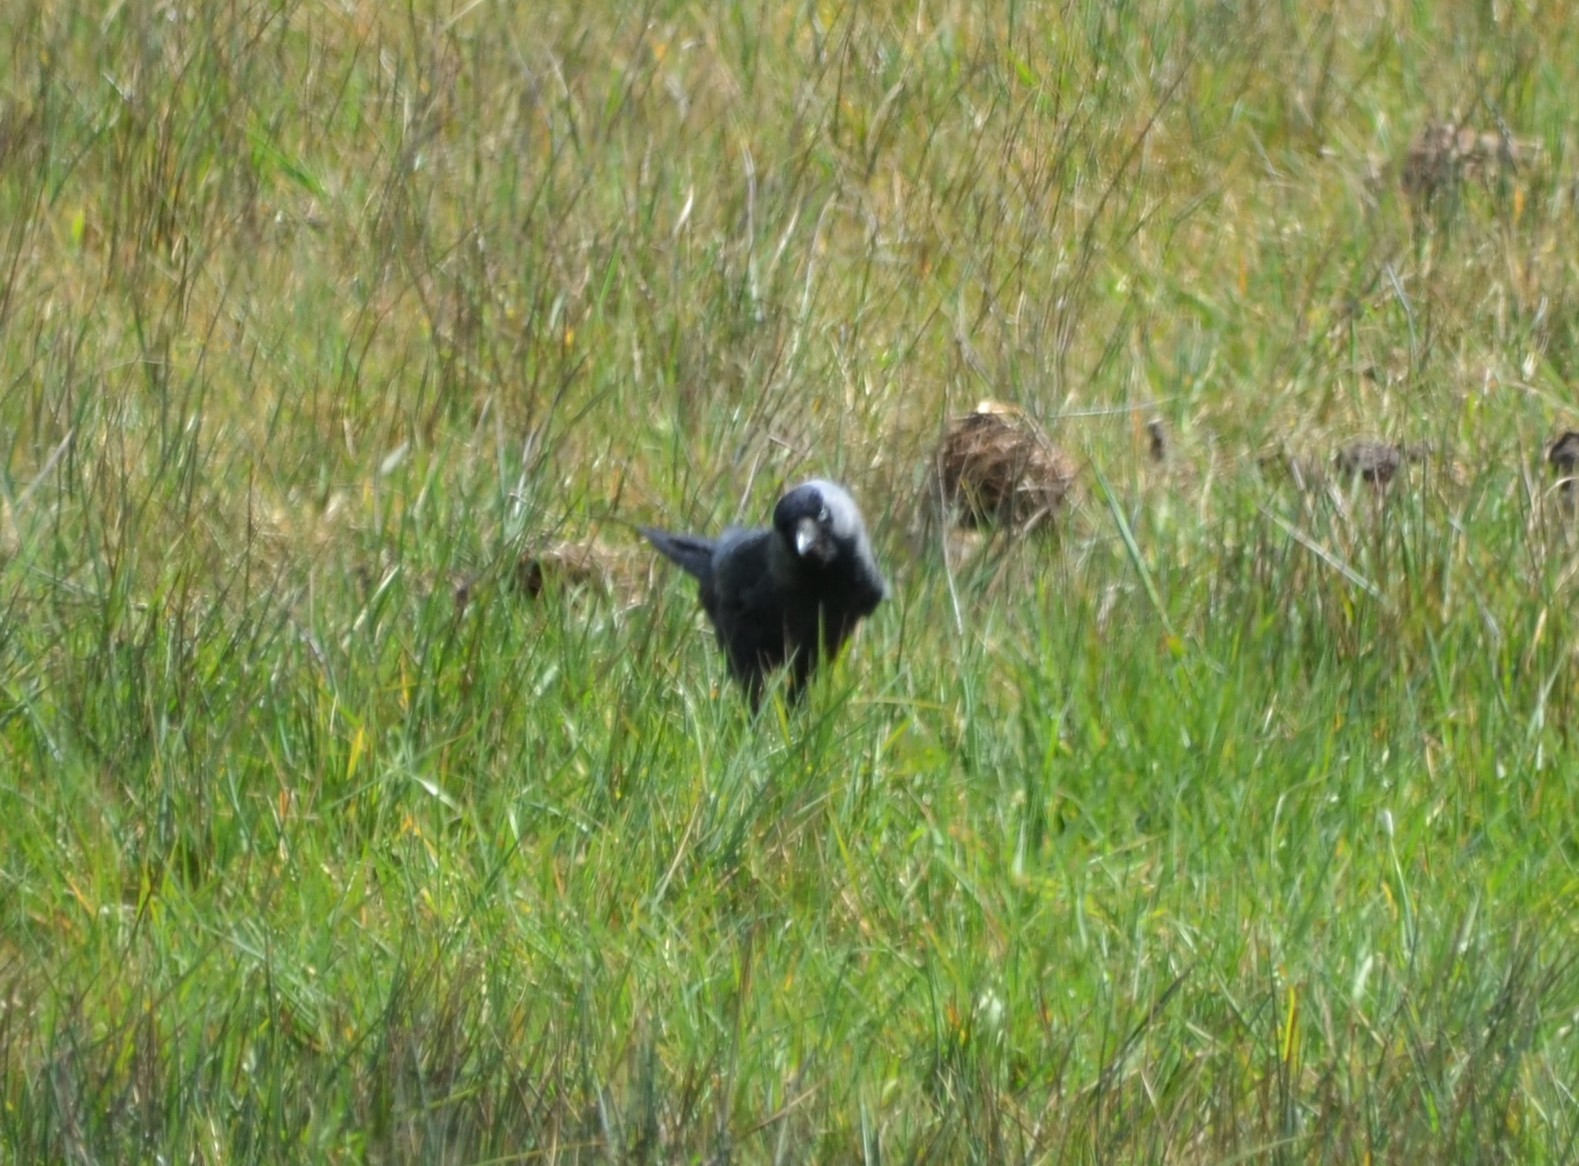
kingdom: Animalia
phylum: Chordata
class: Aves
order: Passeriformes
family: Corvidae
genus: Coloeus
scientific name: Coloeus monedula
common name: Western jackdaw
